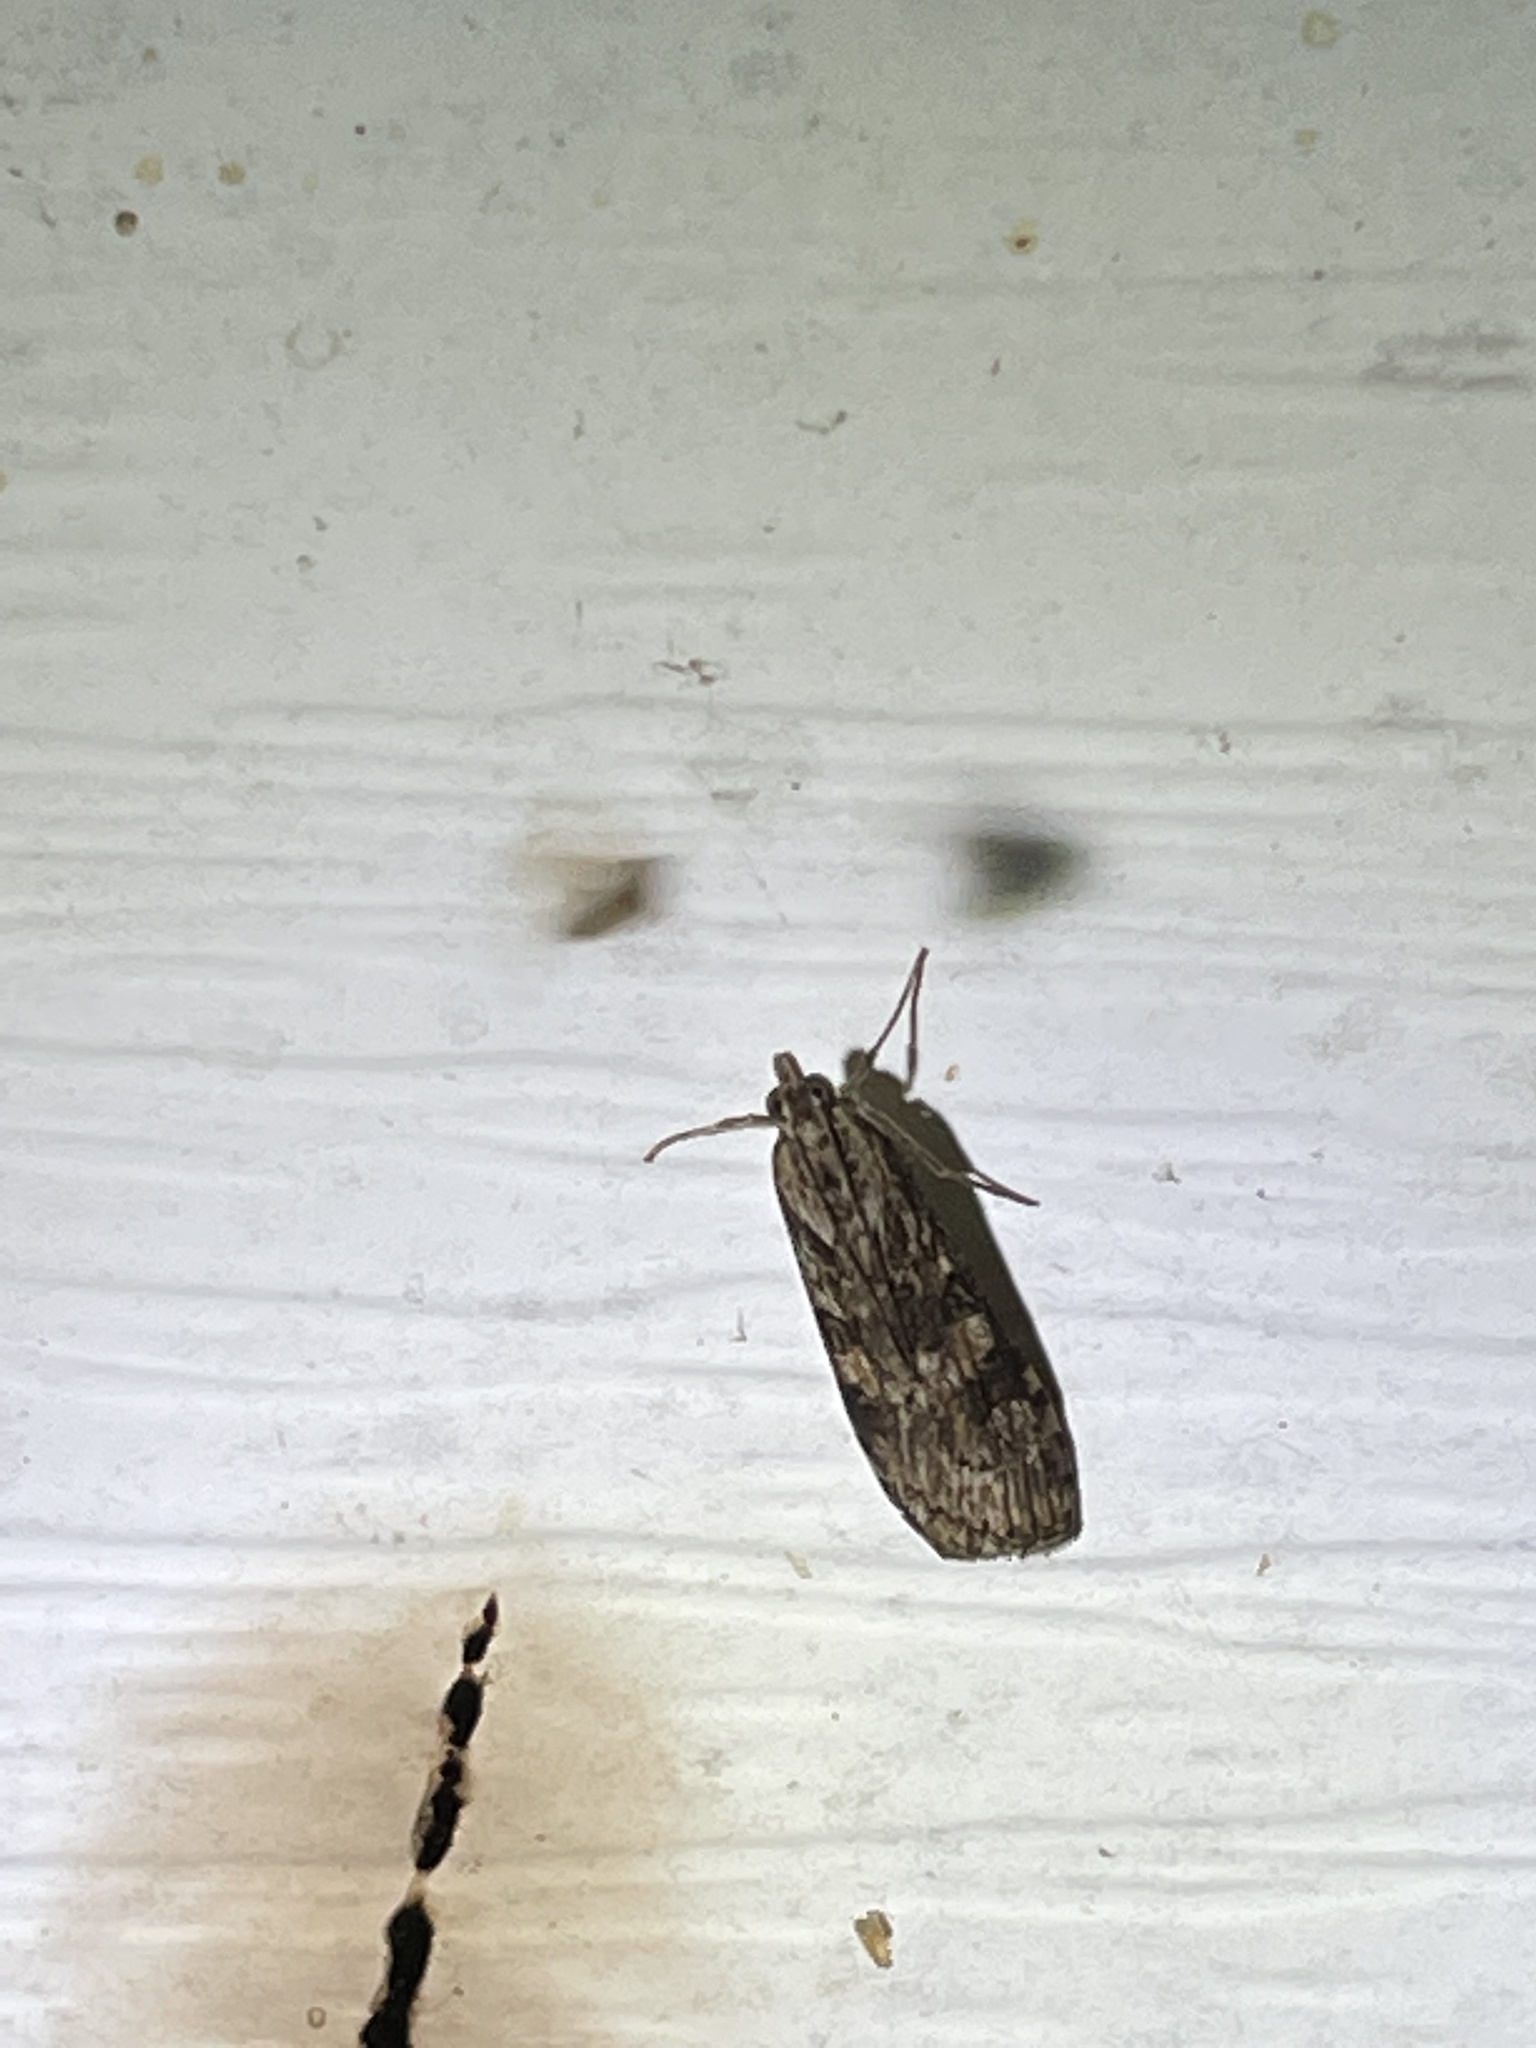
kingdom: Animalia
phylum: Arthropoda
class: Insecta
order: Lepidoptera
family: Crambidae
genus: Nomophila
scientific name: Nomophila nearctica
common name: American rush veneer
